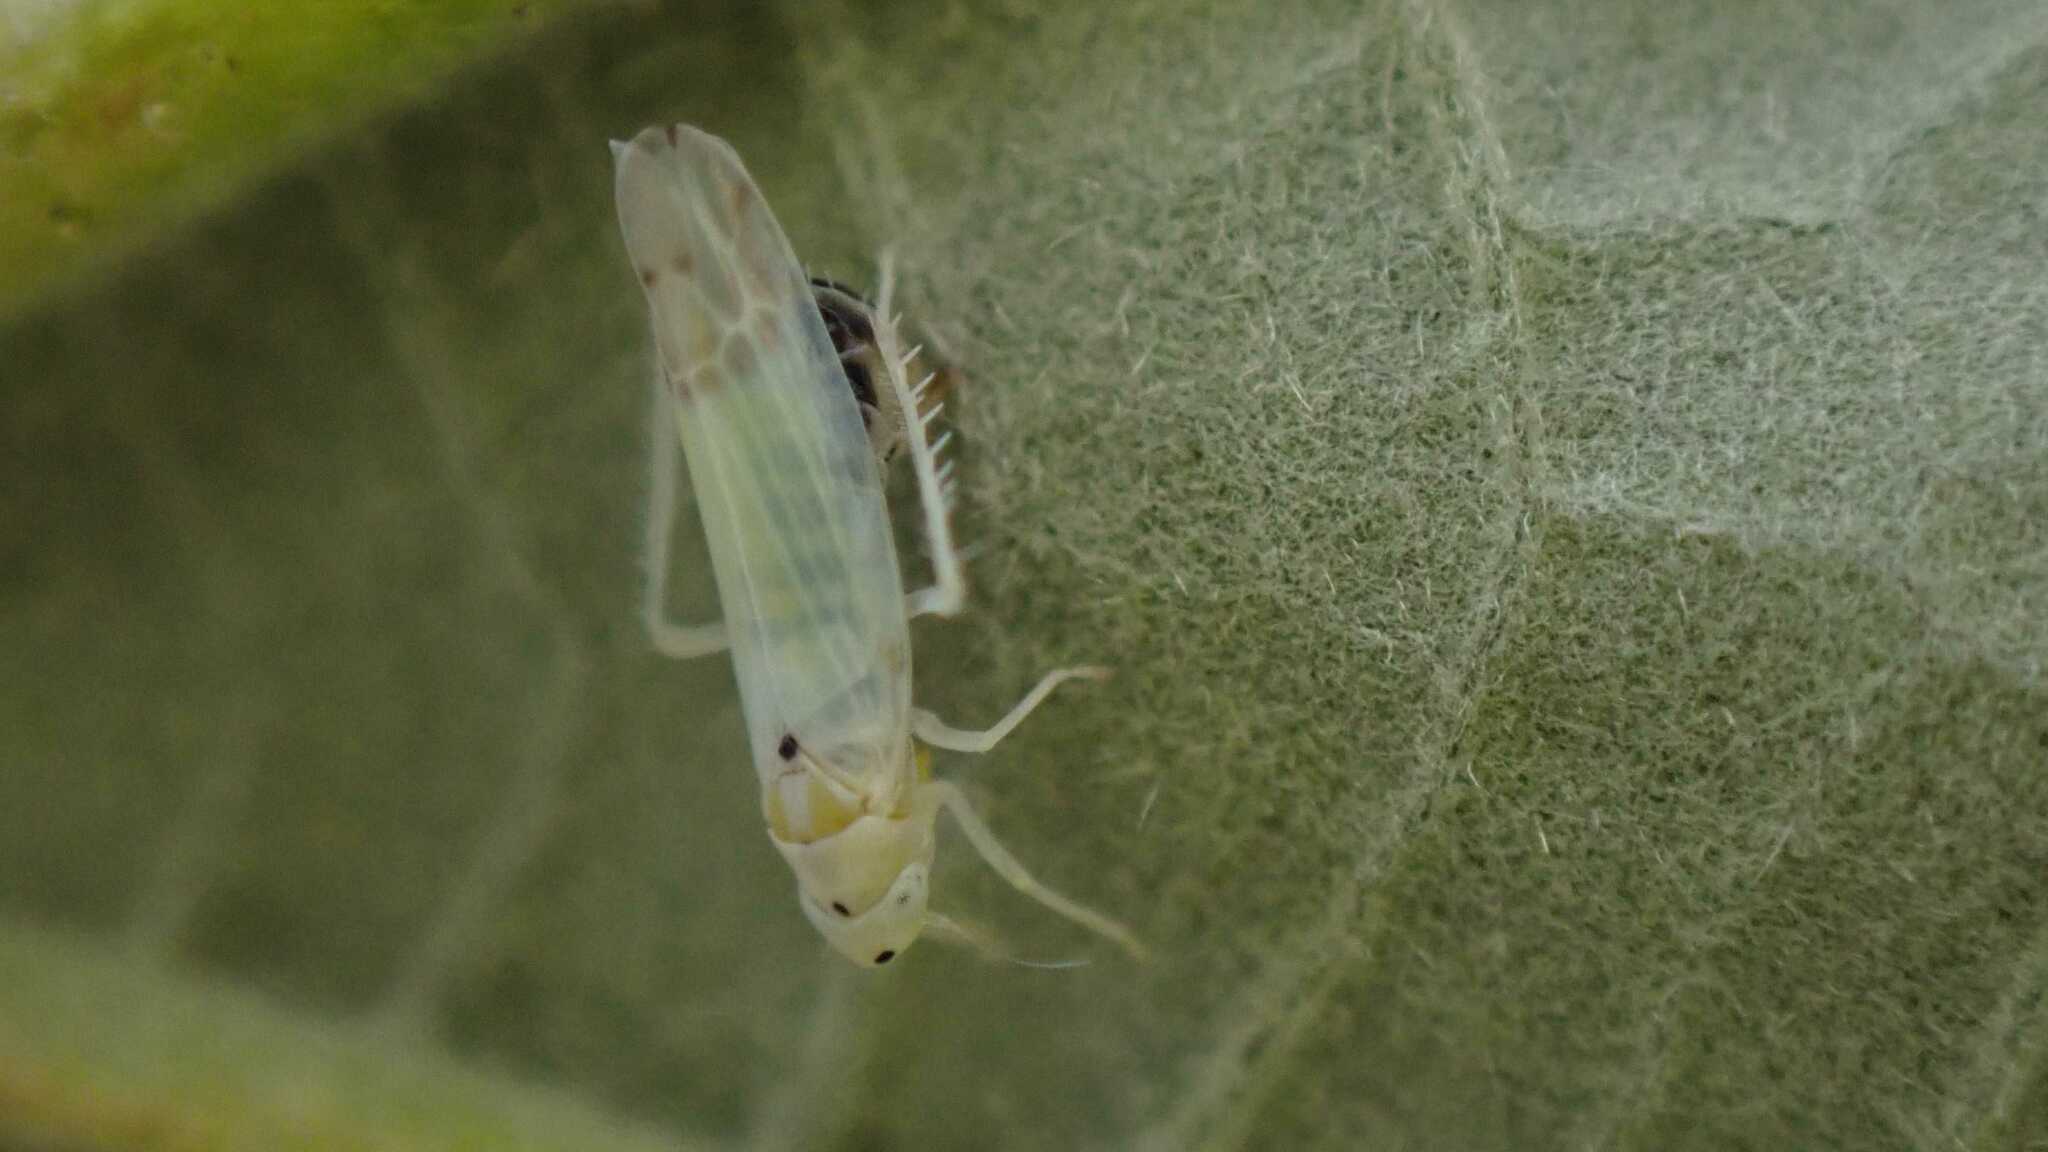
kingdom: Animalia
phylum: Arthropoda
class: Insecta
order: Hemiptera
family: Cicadellidae
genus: Ribautiana
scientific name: Ribautiana debilis
